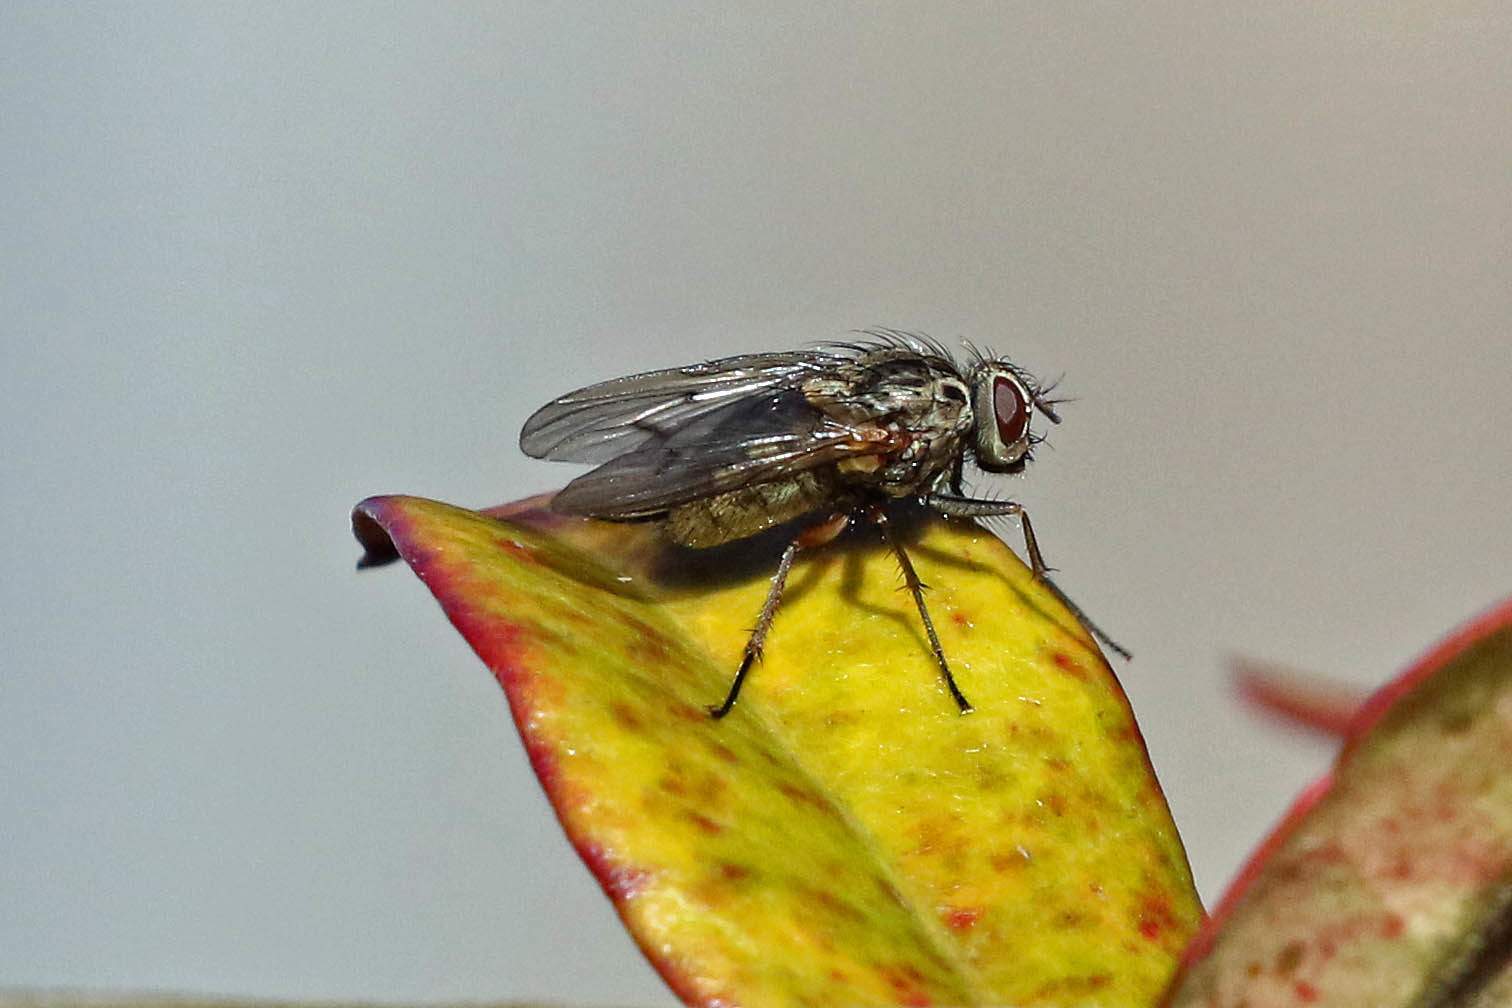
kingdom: Animalia
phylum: Arthropoda
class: Insecta
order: Diptera
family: Muscidae
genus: Phaonia
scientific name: Phaonia tuguriorum
